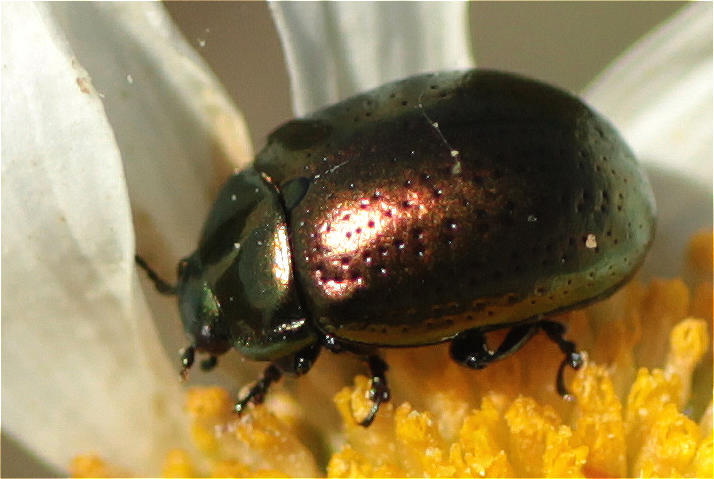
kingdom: Animalia
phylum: Arthropoda
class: Insecta
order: Coleoptera
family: Chrysomelidae
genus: Chrysolina
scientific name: Chrysolina hyperici
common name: St. johnswort beetle
